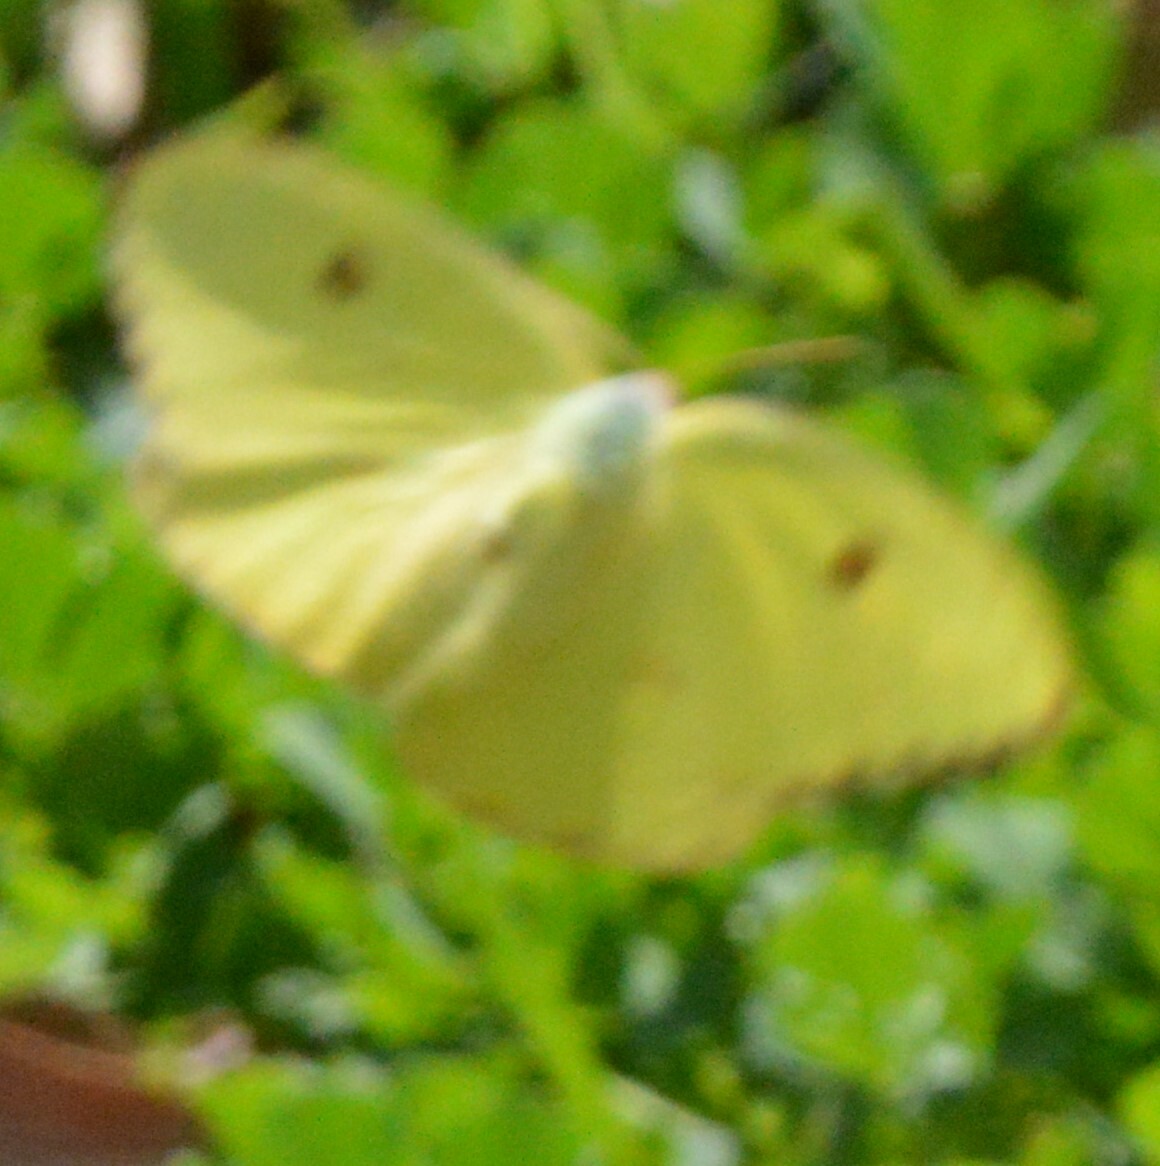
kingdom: Animalia
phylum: Arthropoda
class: Insecta
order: Lepidoptera
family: Pieridae
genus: Phoebis
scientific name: Phoebis sennae
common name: Cloudless sulphur
